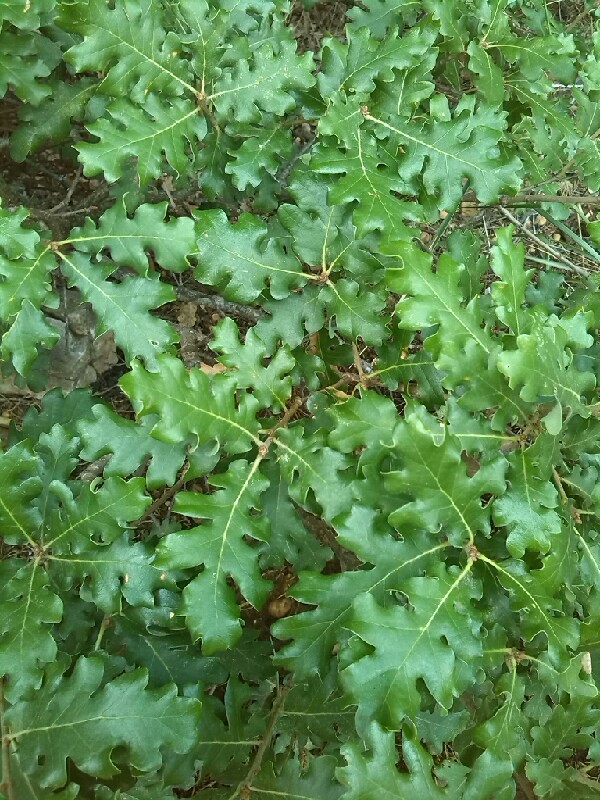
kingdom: Plantae
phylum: Tracheophyta
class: Magnoliopsida
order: Fagales
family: Fagaceae
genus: Quercus
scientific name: Quercus pubescens
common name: Downy oak
